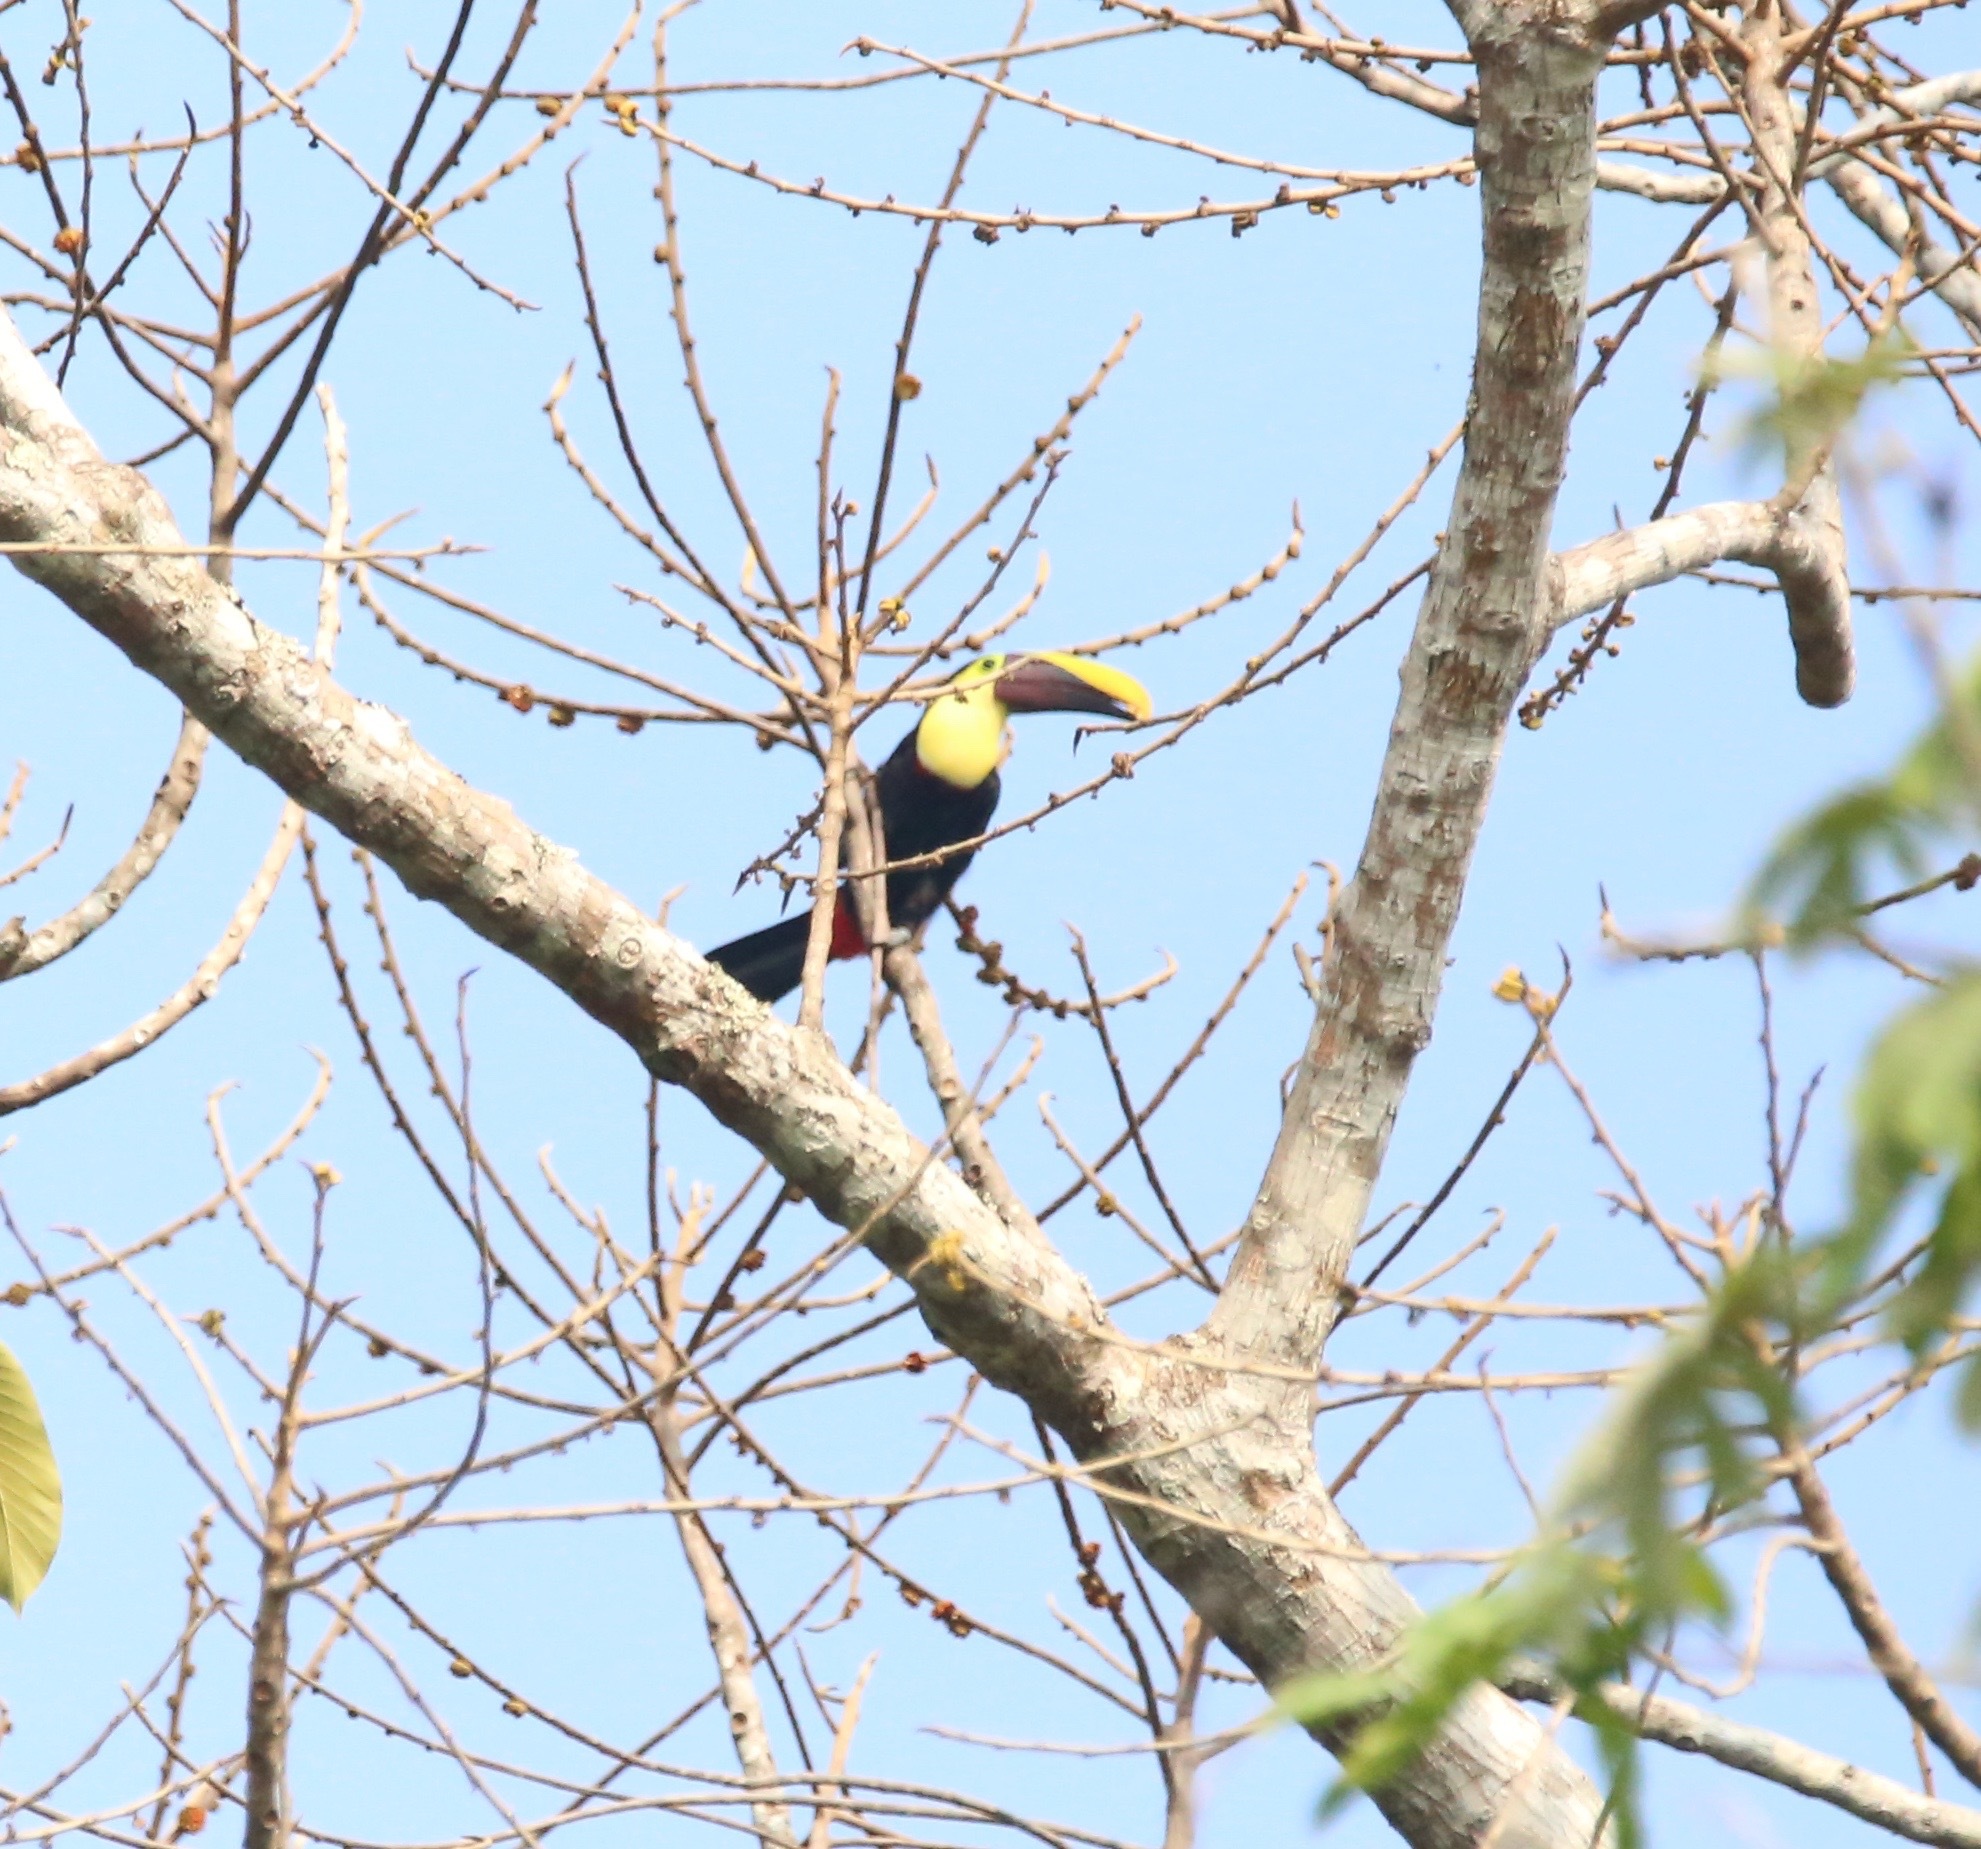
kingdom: Animalia
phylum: Chordata
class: Aves
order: Piciformes
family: Ramphastidae
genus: Ramphastos
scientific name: Ramphastos ambiguus
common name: Yellow-throated toucan
